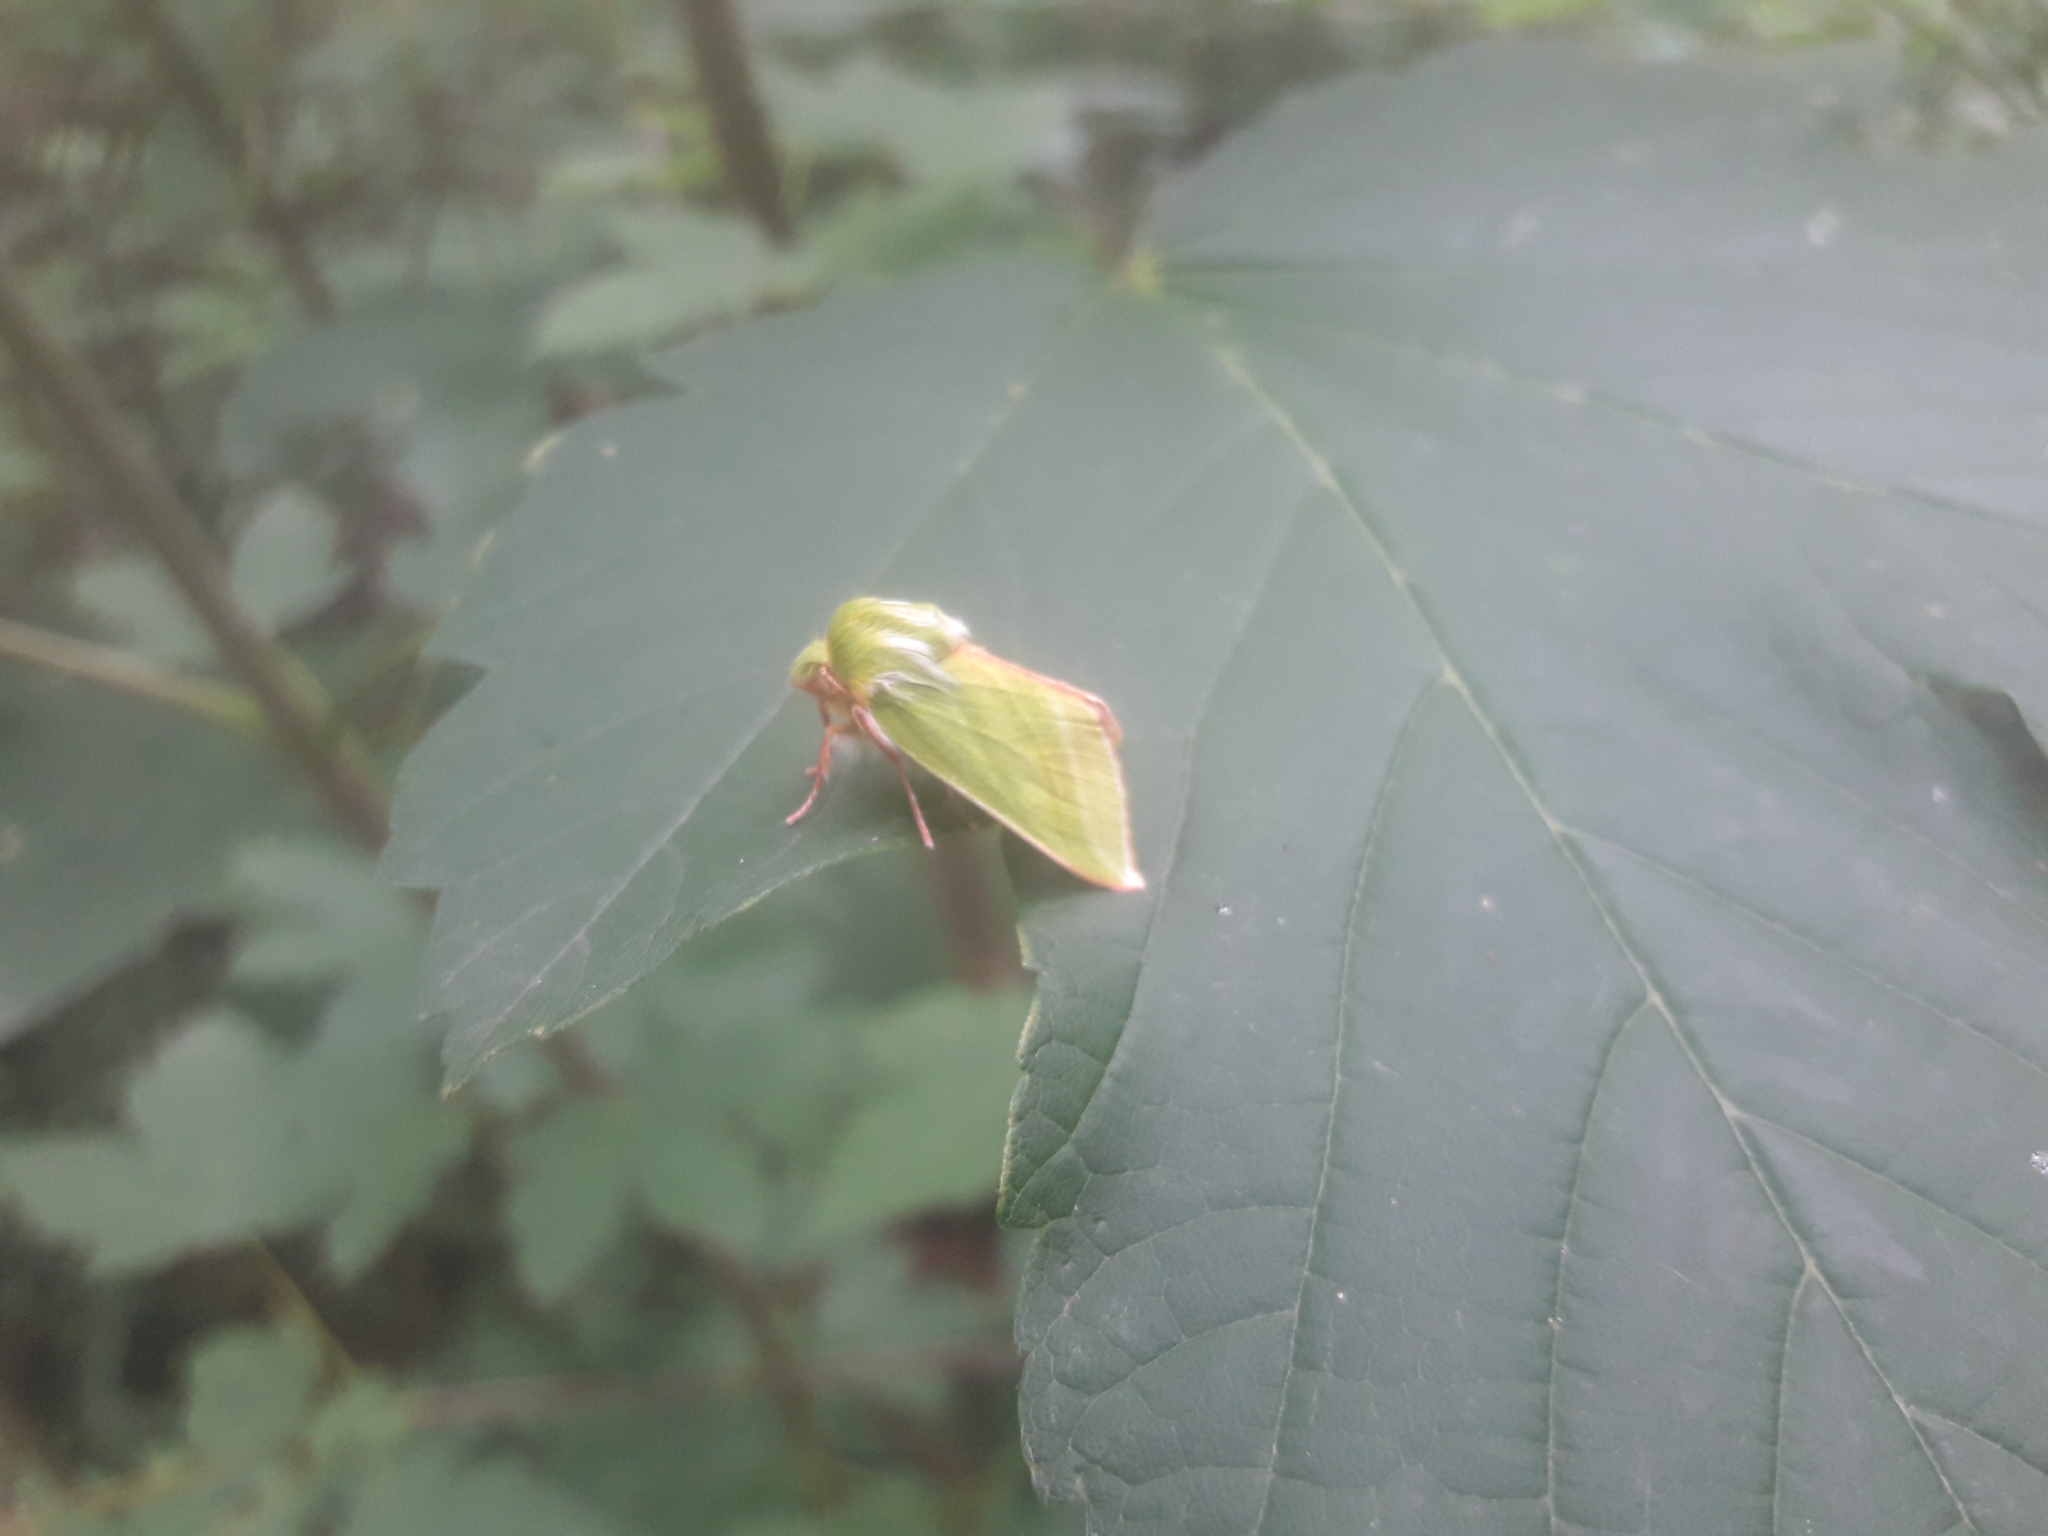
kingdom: Animalia
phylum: Arthropoda
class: Insecta
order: Lepidoptera
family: Nolidae
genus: Pseudoips
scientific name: Pseudoips prasinana
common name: Green silver-lines
